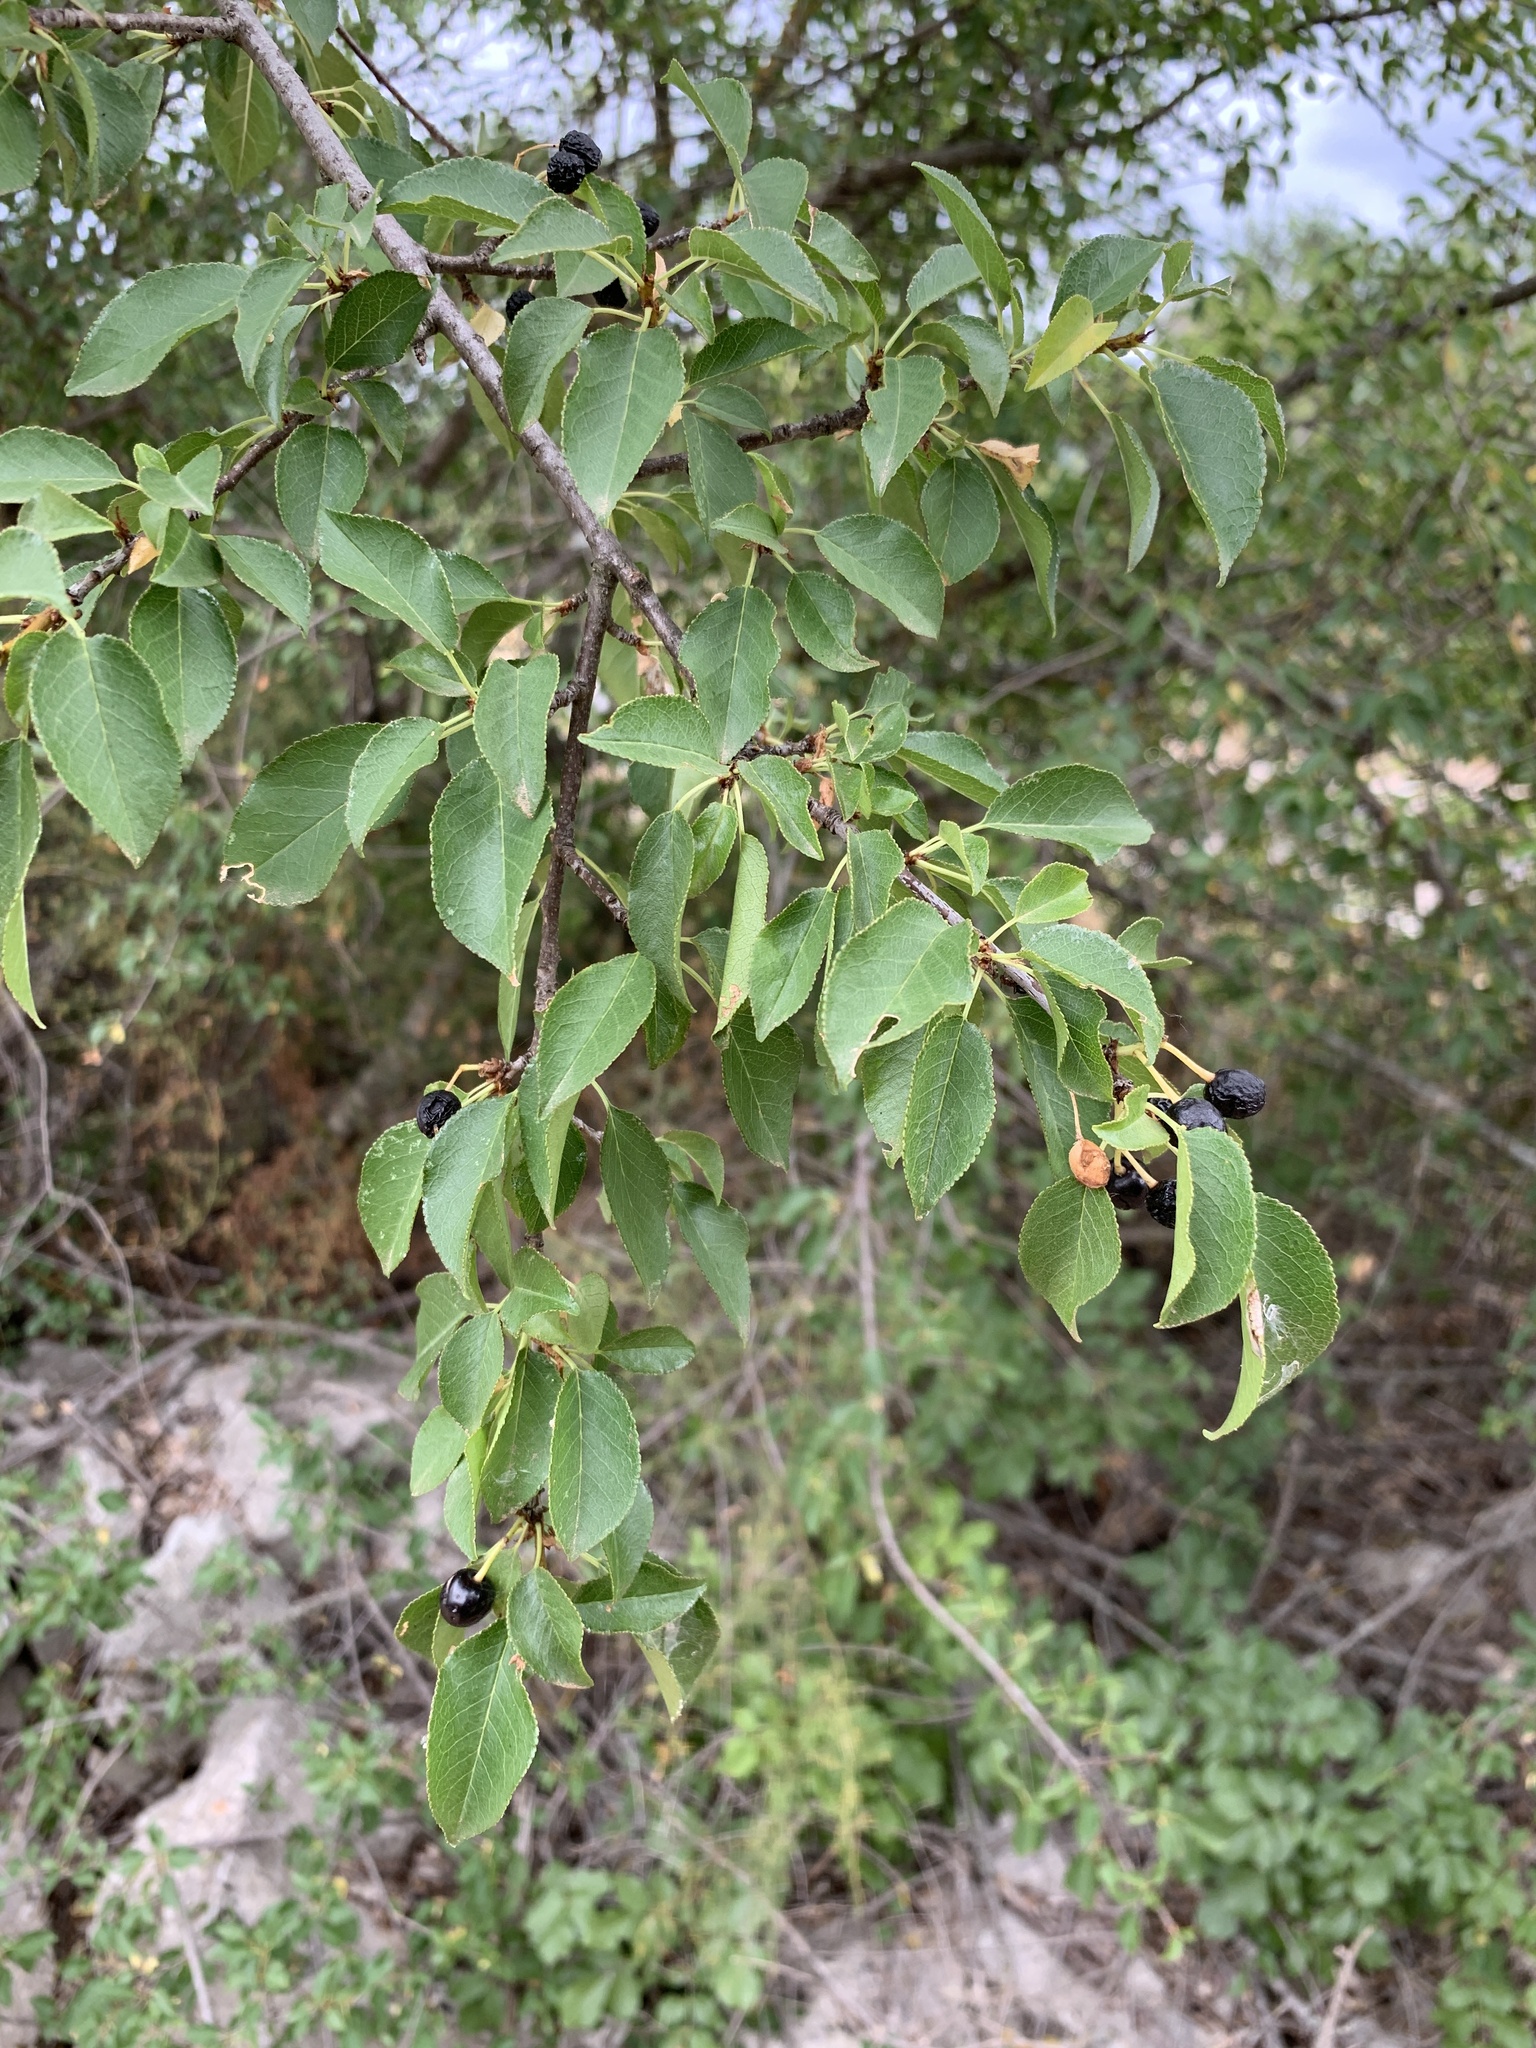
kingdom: Plantae
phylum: Tracheophyta
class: Magnoliopsida
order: Rosales
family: Rosaceae
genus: Prunus
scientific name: Prunus mahaleb
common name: Mahaleb cherry
